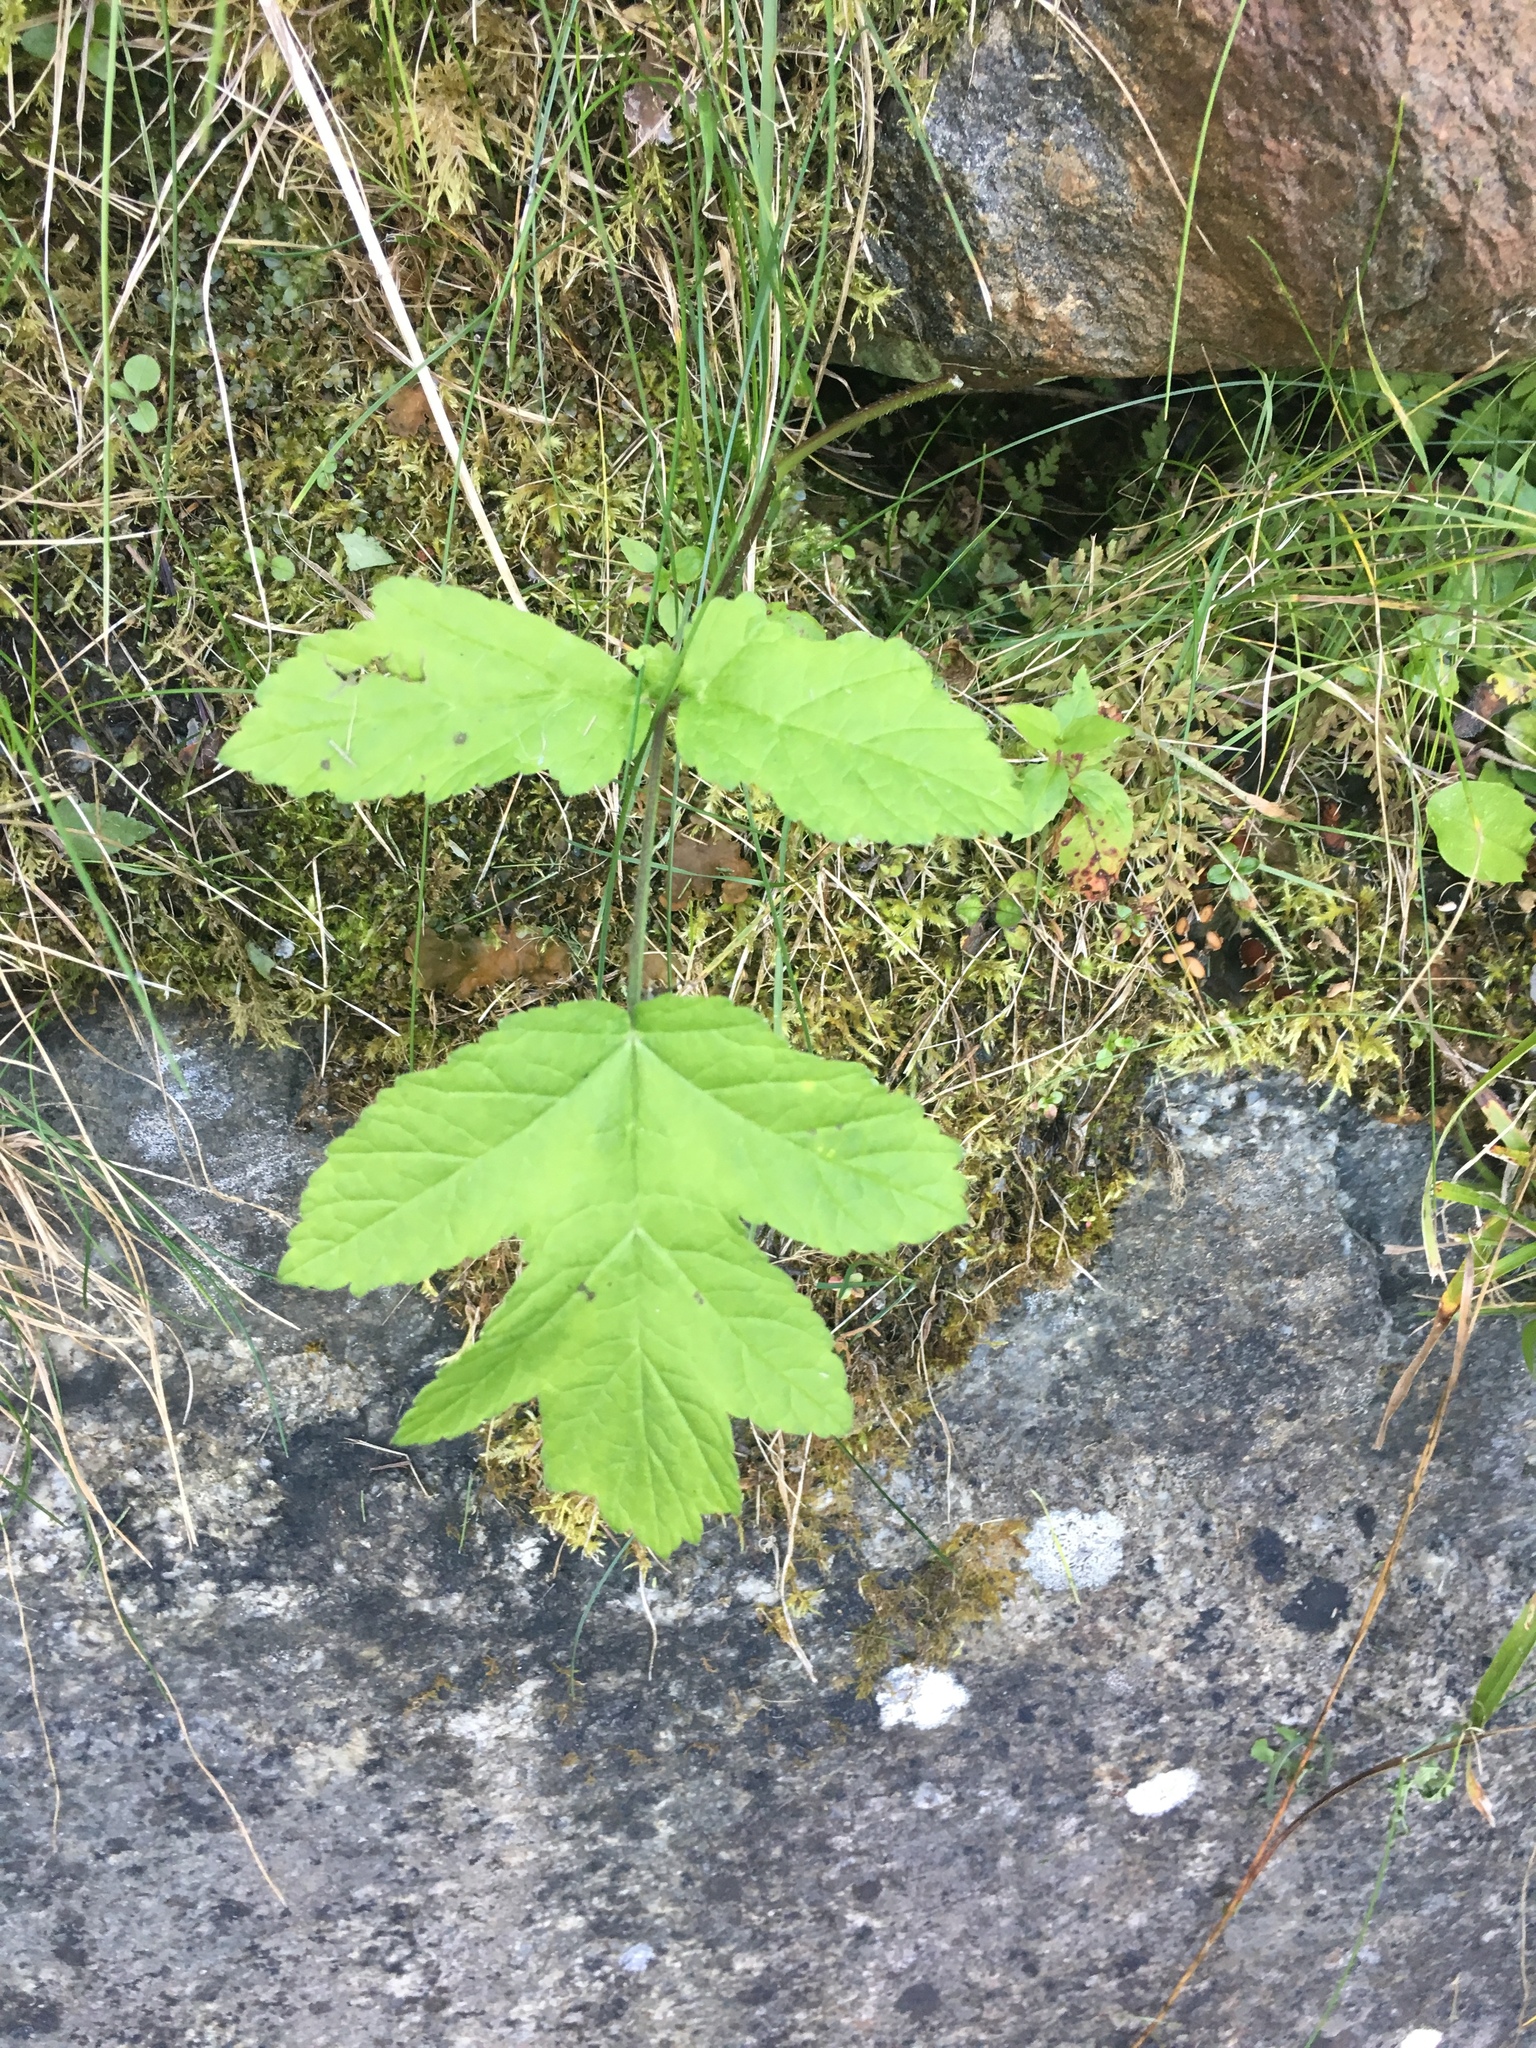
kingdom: Plantae
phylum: Tracheophyta
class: Magnoliopsida
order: Apiales
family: Apiaceae
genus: Heracleum
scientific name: Heracleum sphondylium
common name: Hogweed
